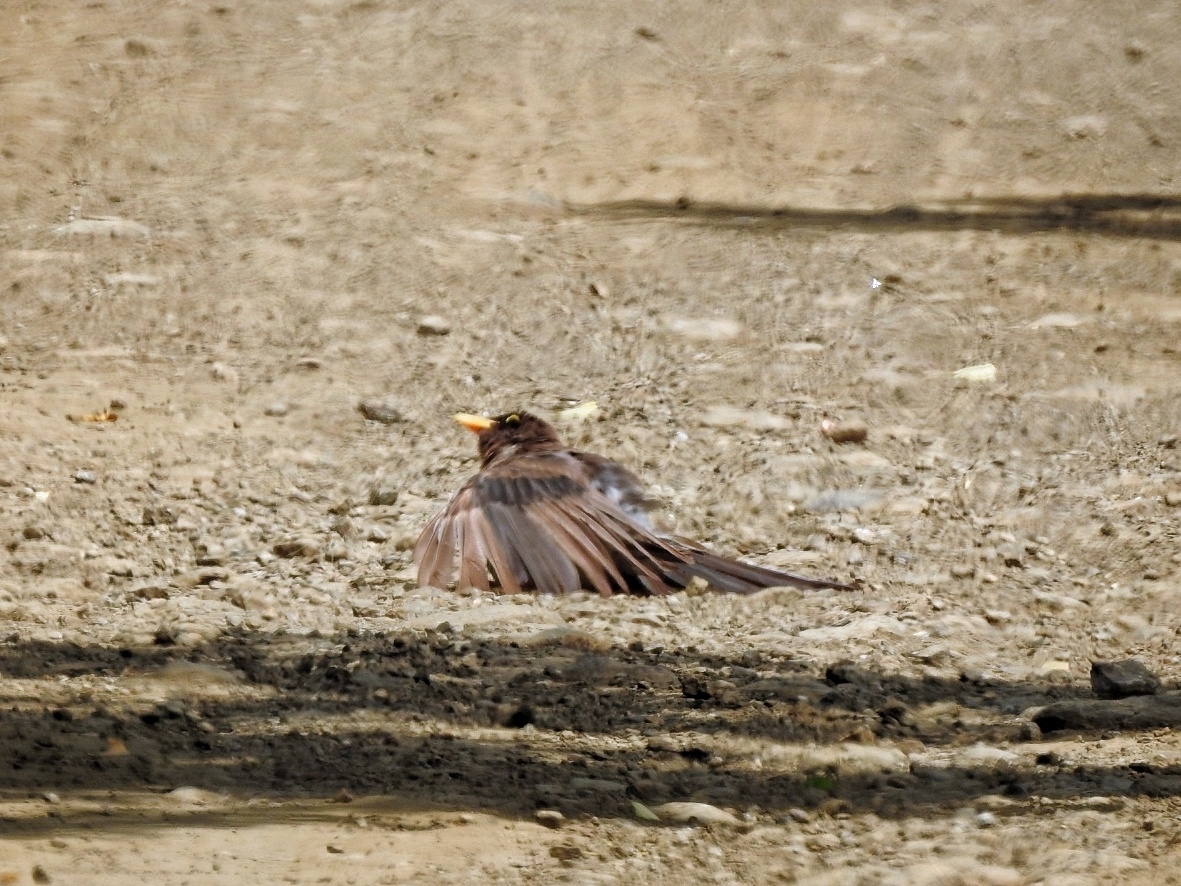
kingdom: Animalia
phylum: Chordata
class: Aves
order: Passeriformes
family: Corvidae
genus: Psilorhinus
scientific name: Psilorhinus morio
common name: Brown jay
